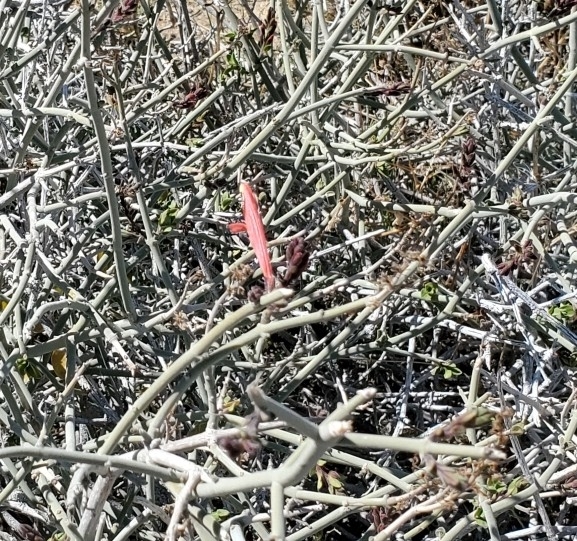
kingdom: Plantae
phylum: Tracheophyta
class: Magnoliopsida
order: Lamiales
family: Acanthaceae
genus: Justicia
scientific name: Justicia californica
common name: Chuparosa-honeysuckle
